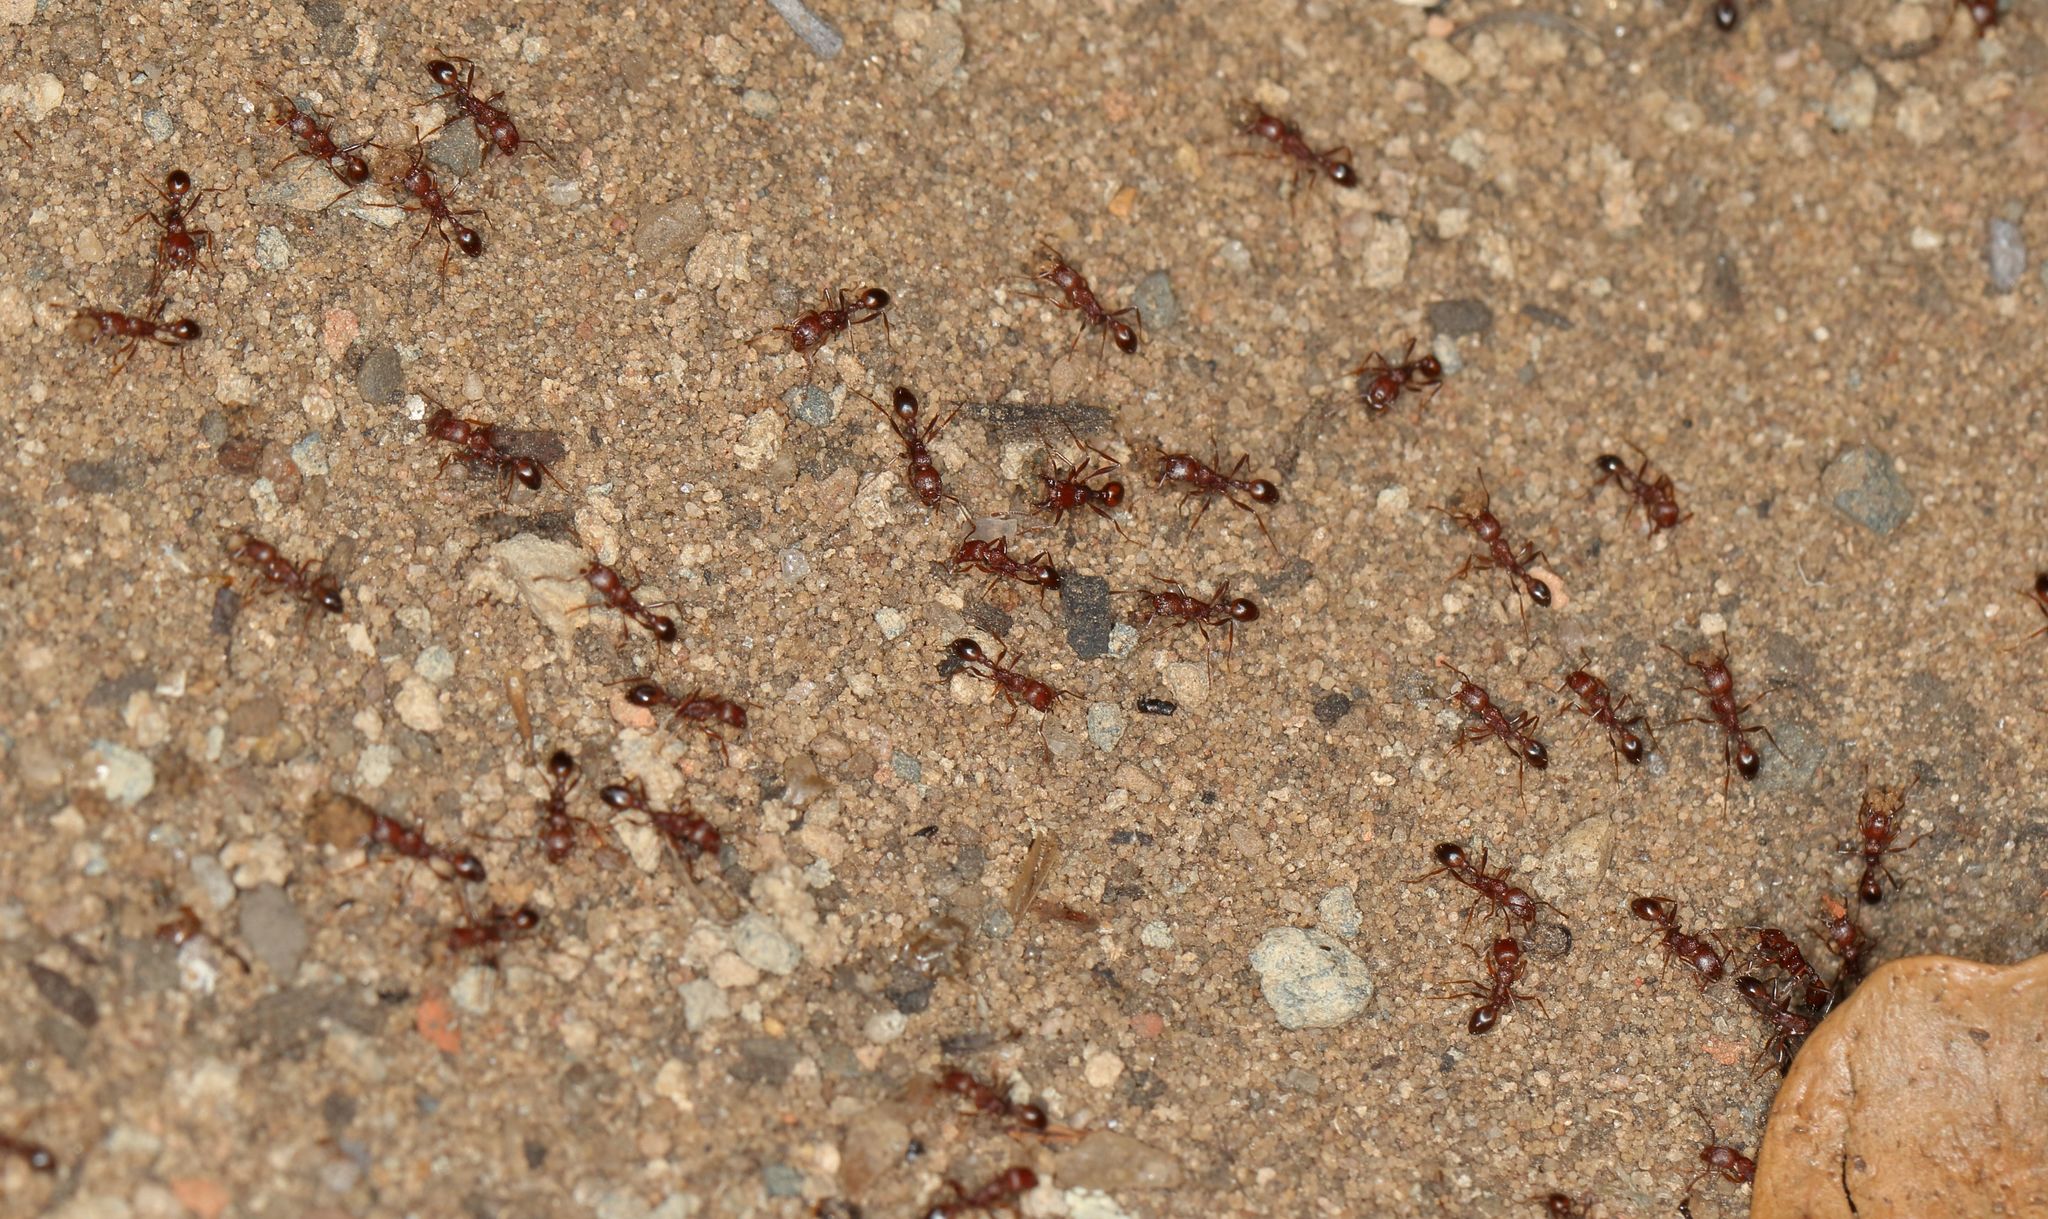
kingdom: Animalia
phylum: Arthropoda
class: Insecta
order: Hymenoptera
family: Formicidae
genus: Tetramorium
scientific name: Tetramorium sericeiventre
